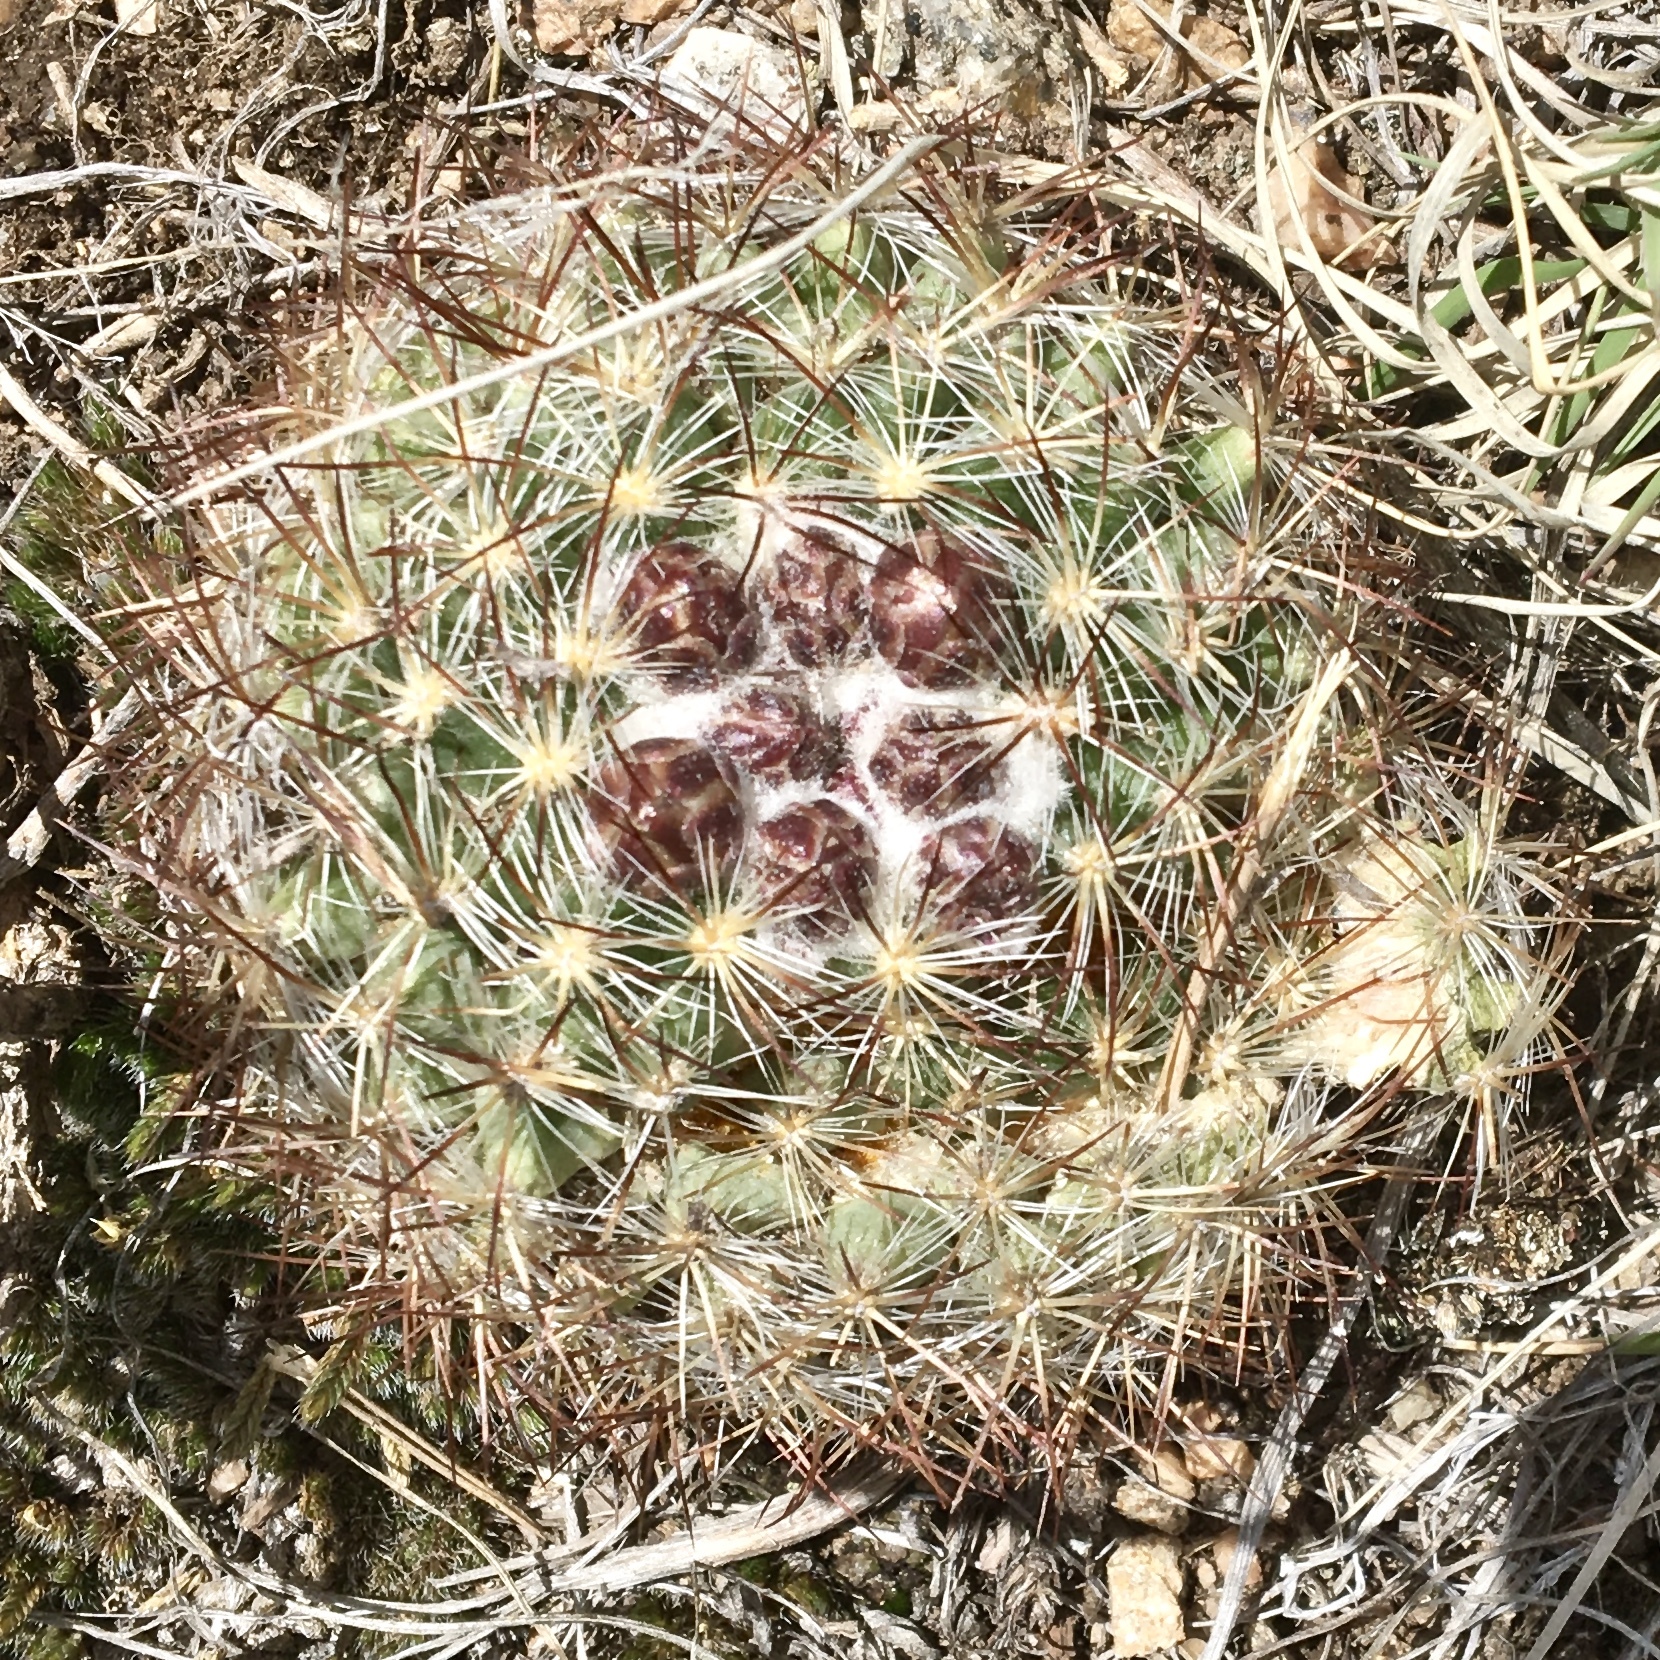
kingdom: Plantae
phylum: Tracheophyta
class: Magnoliopsida
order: Caryophyllales
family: Cactaceae
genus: Pediocactus
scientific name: Pediocactus simpsonii
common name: Simpson's hedgehog cactus
